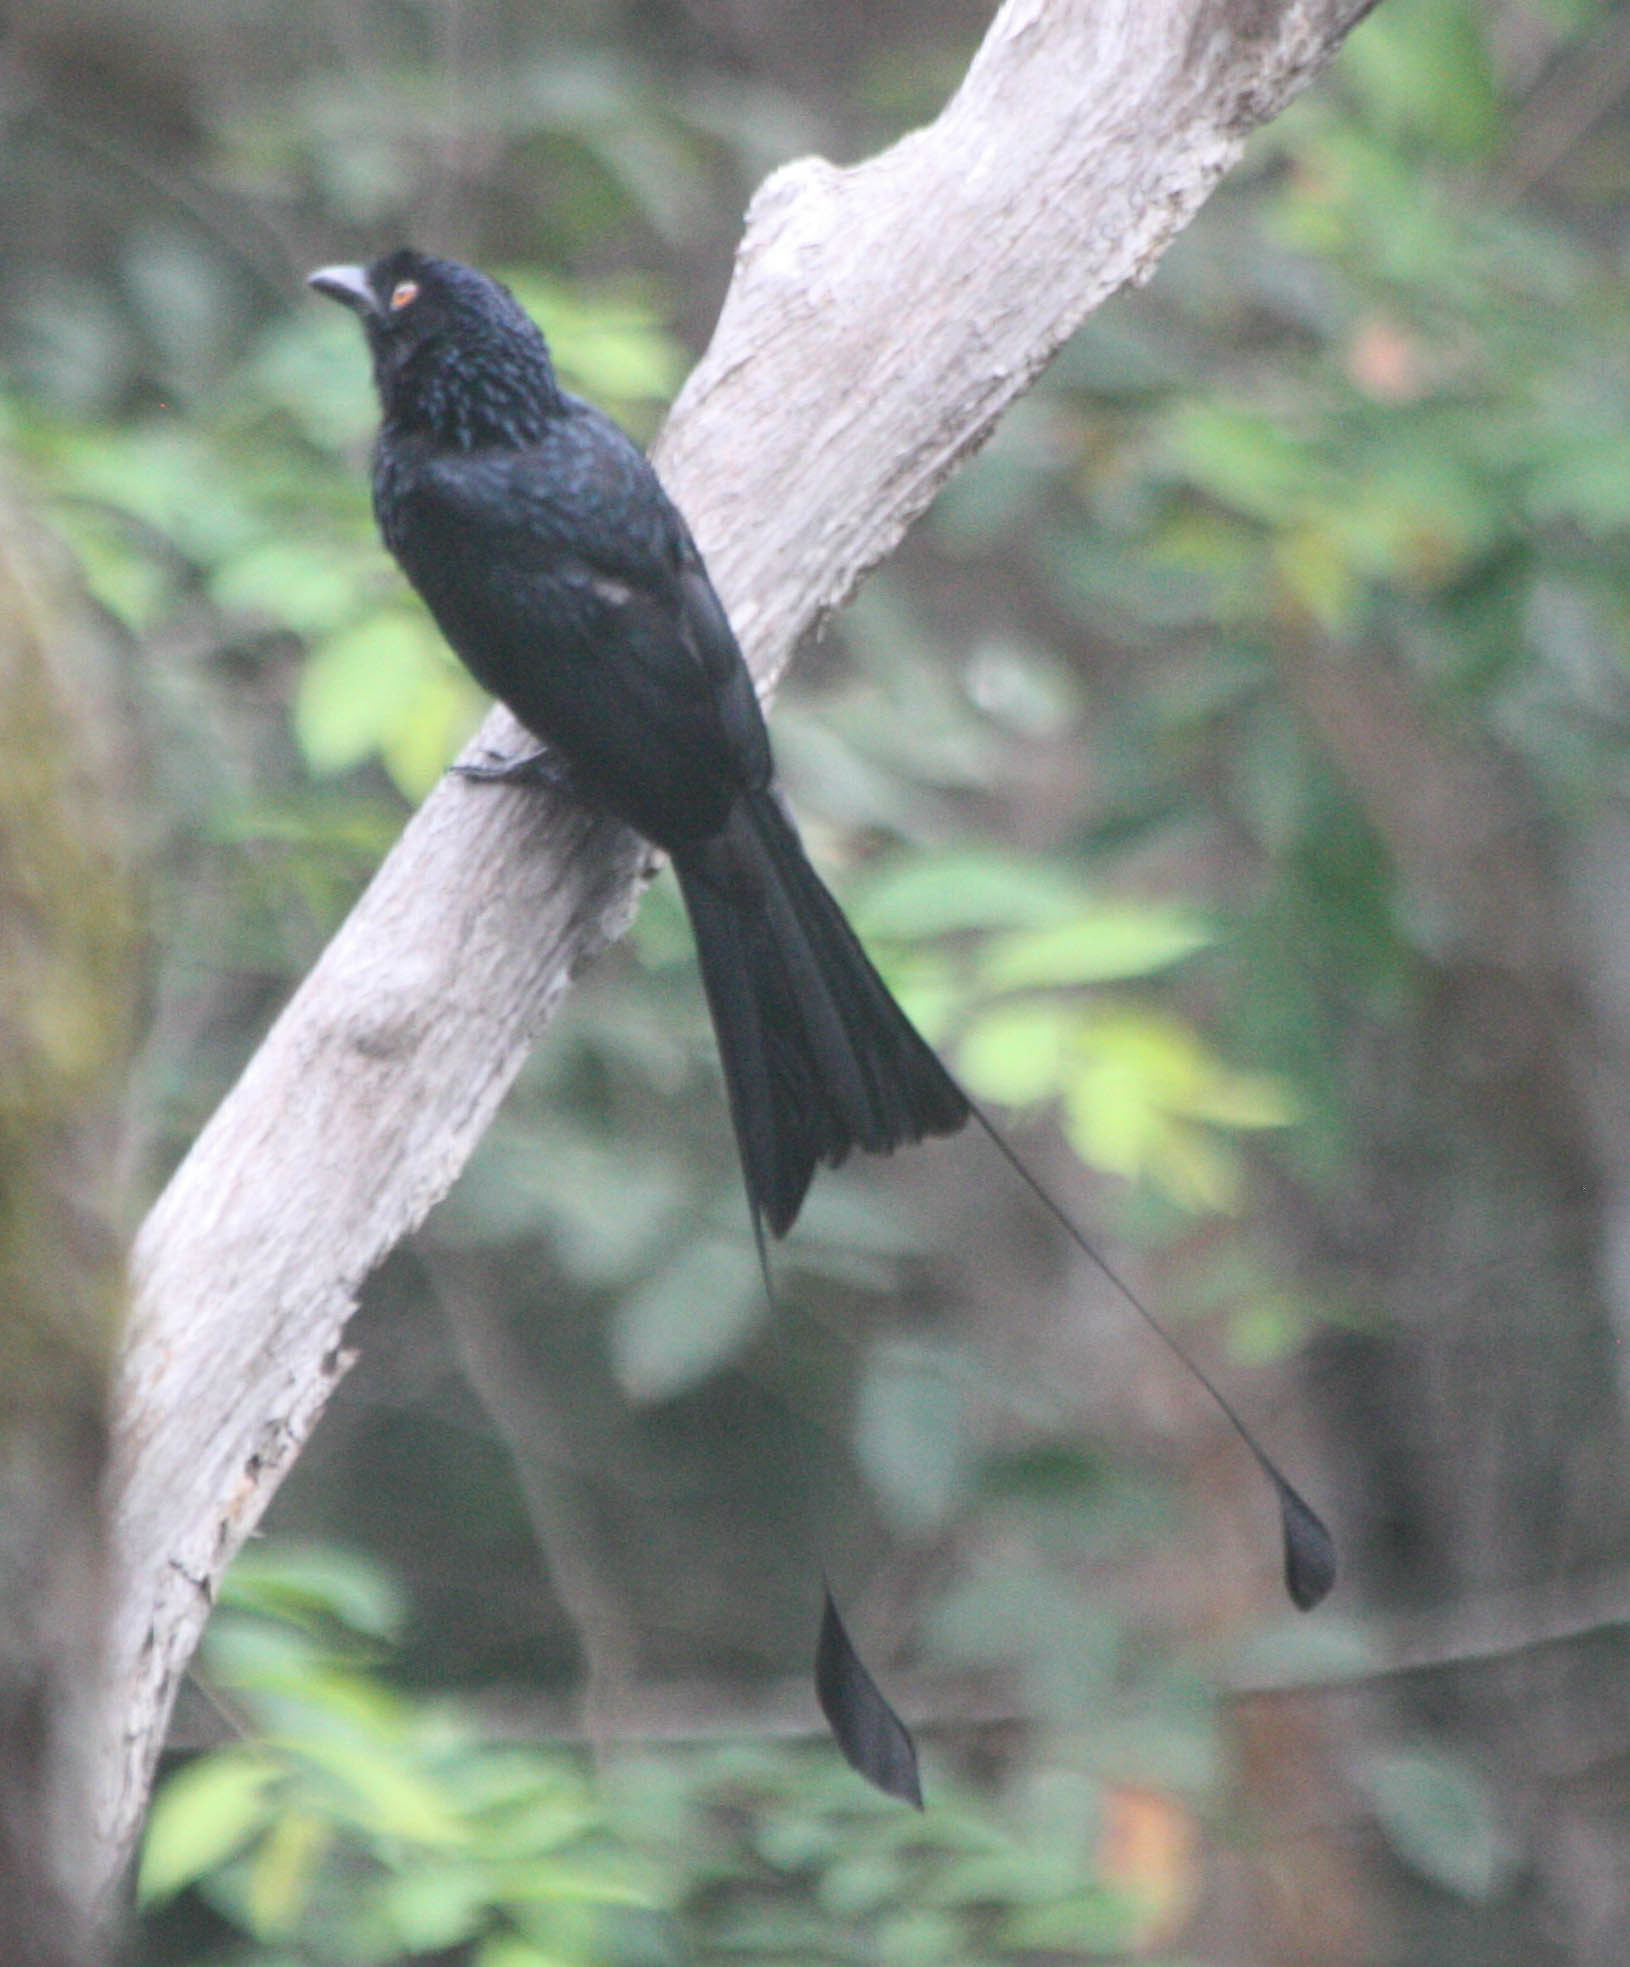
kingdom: Animalia
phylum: Chordata
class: Aves
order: Passeriformes
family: Dicruridae
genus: Dicrurus
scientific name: Dicrurus paradiseus
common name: Greater racket-tailed drongo
